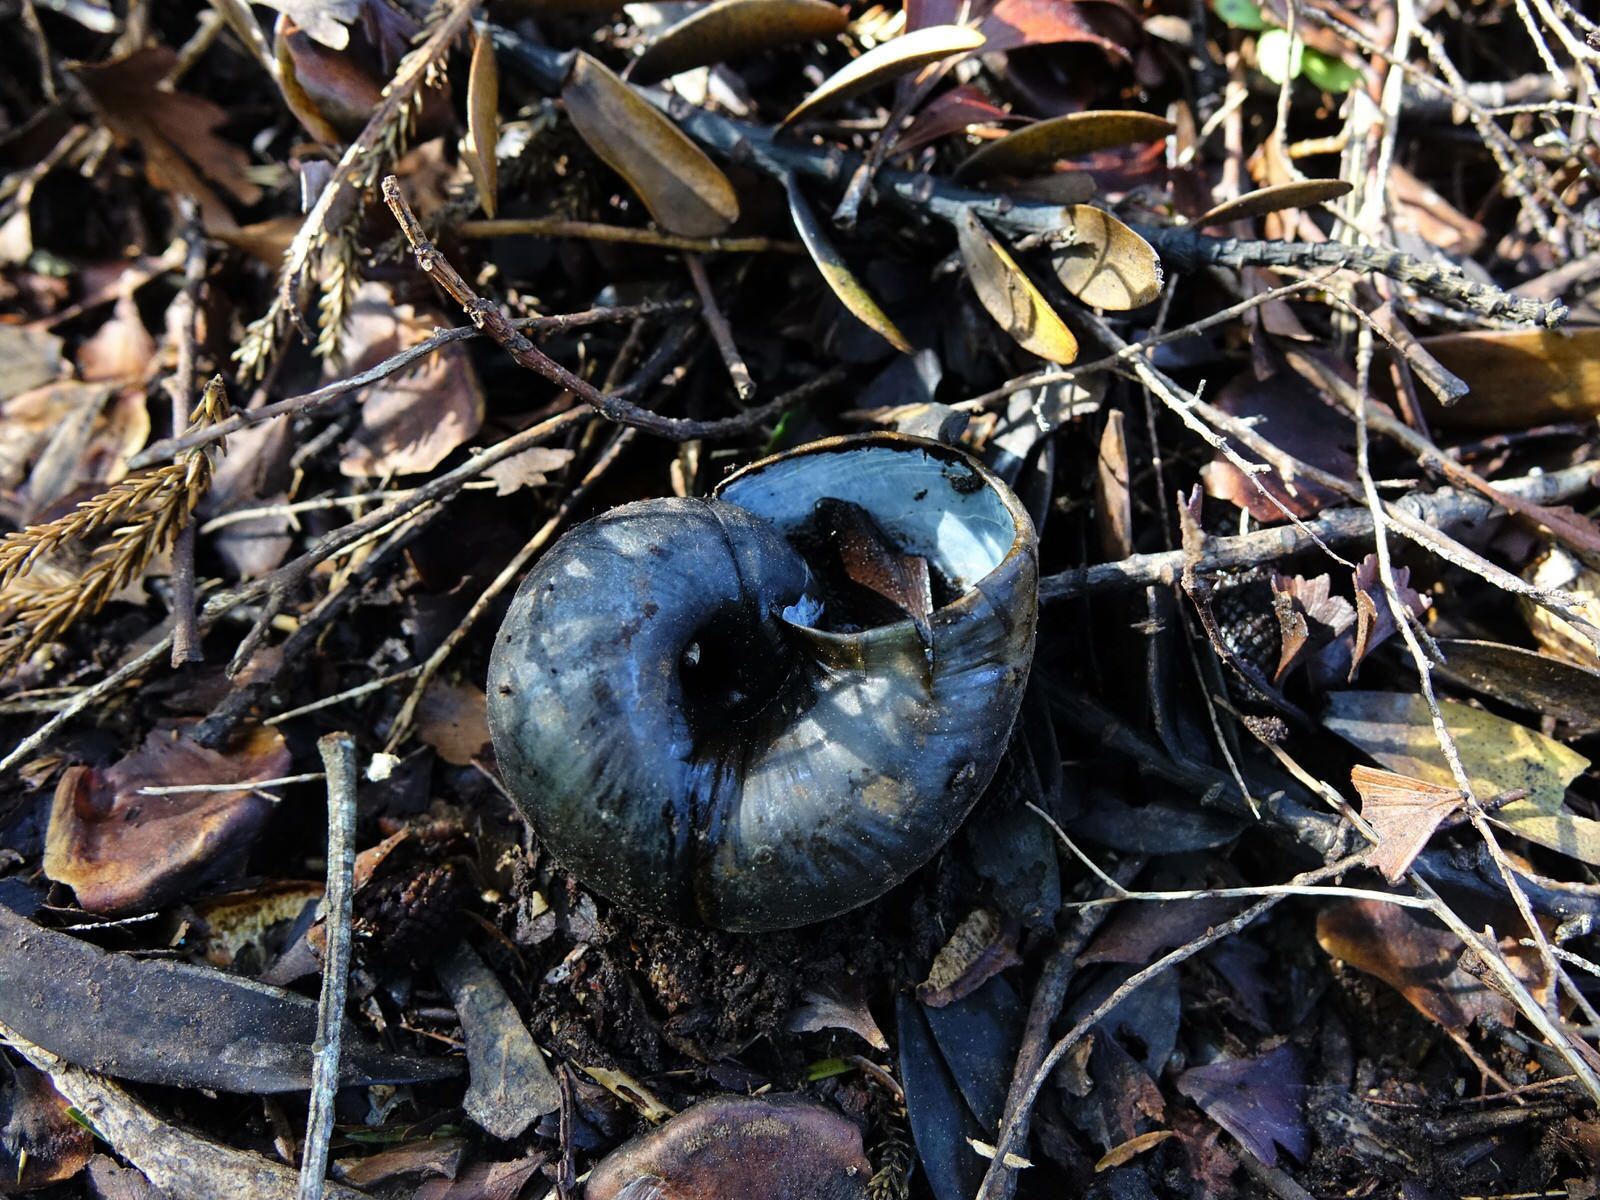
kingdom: Animalia
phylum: Mollusca
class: Gastropoda
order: Stylommatophora
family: Rhytididae
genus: Paryphanta
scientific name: Paryphanta busbyi
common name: Kauri snail
